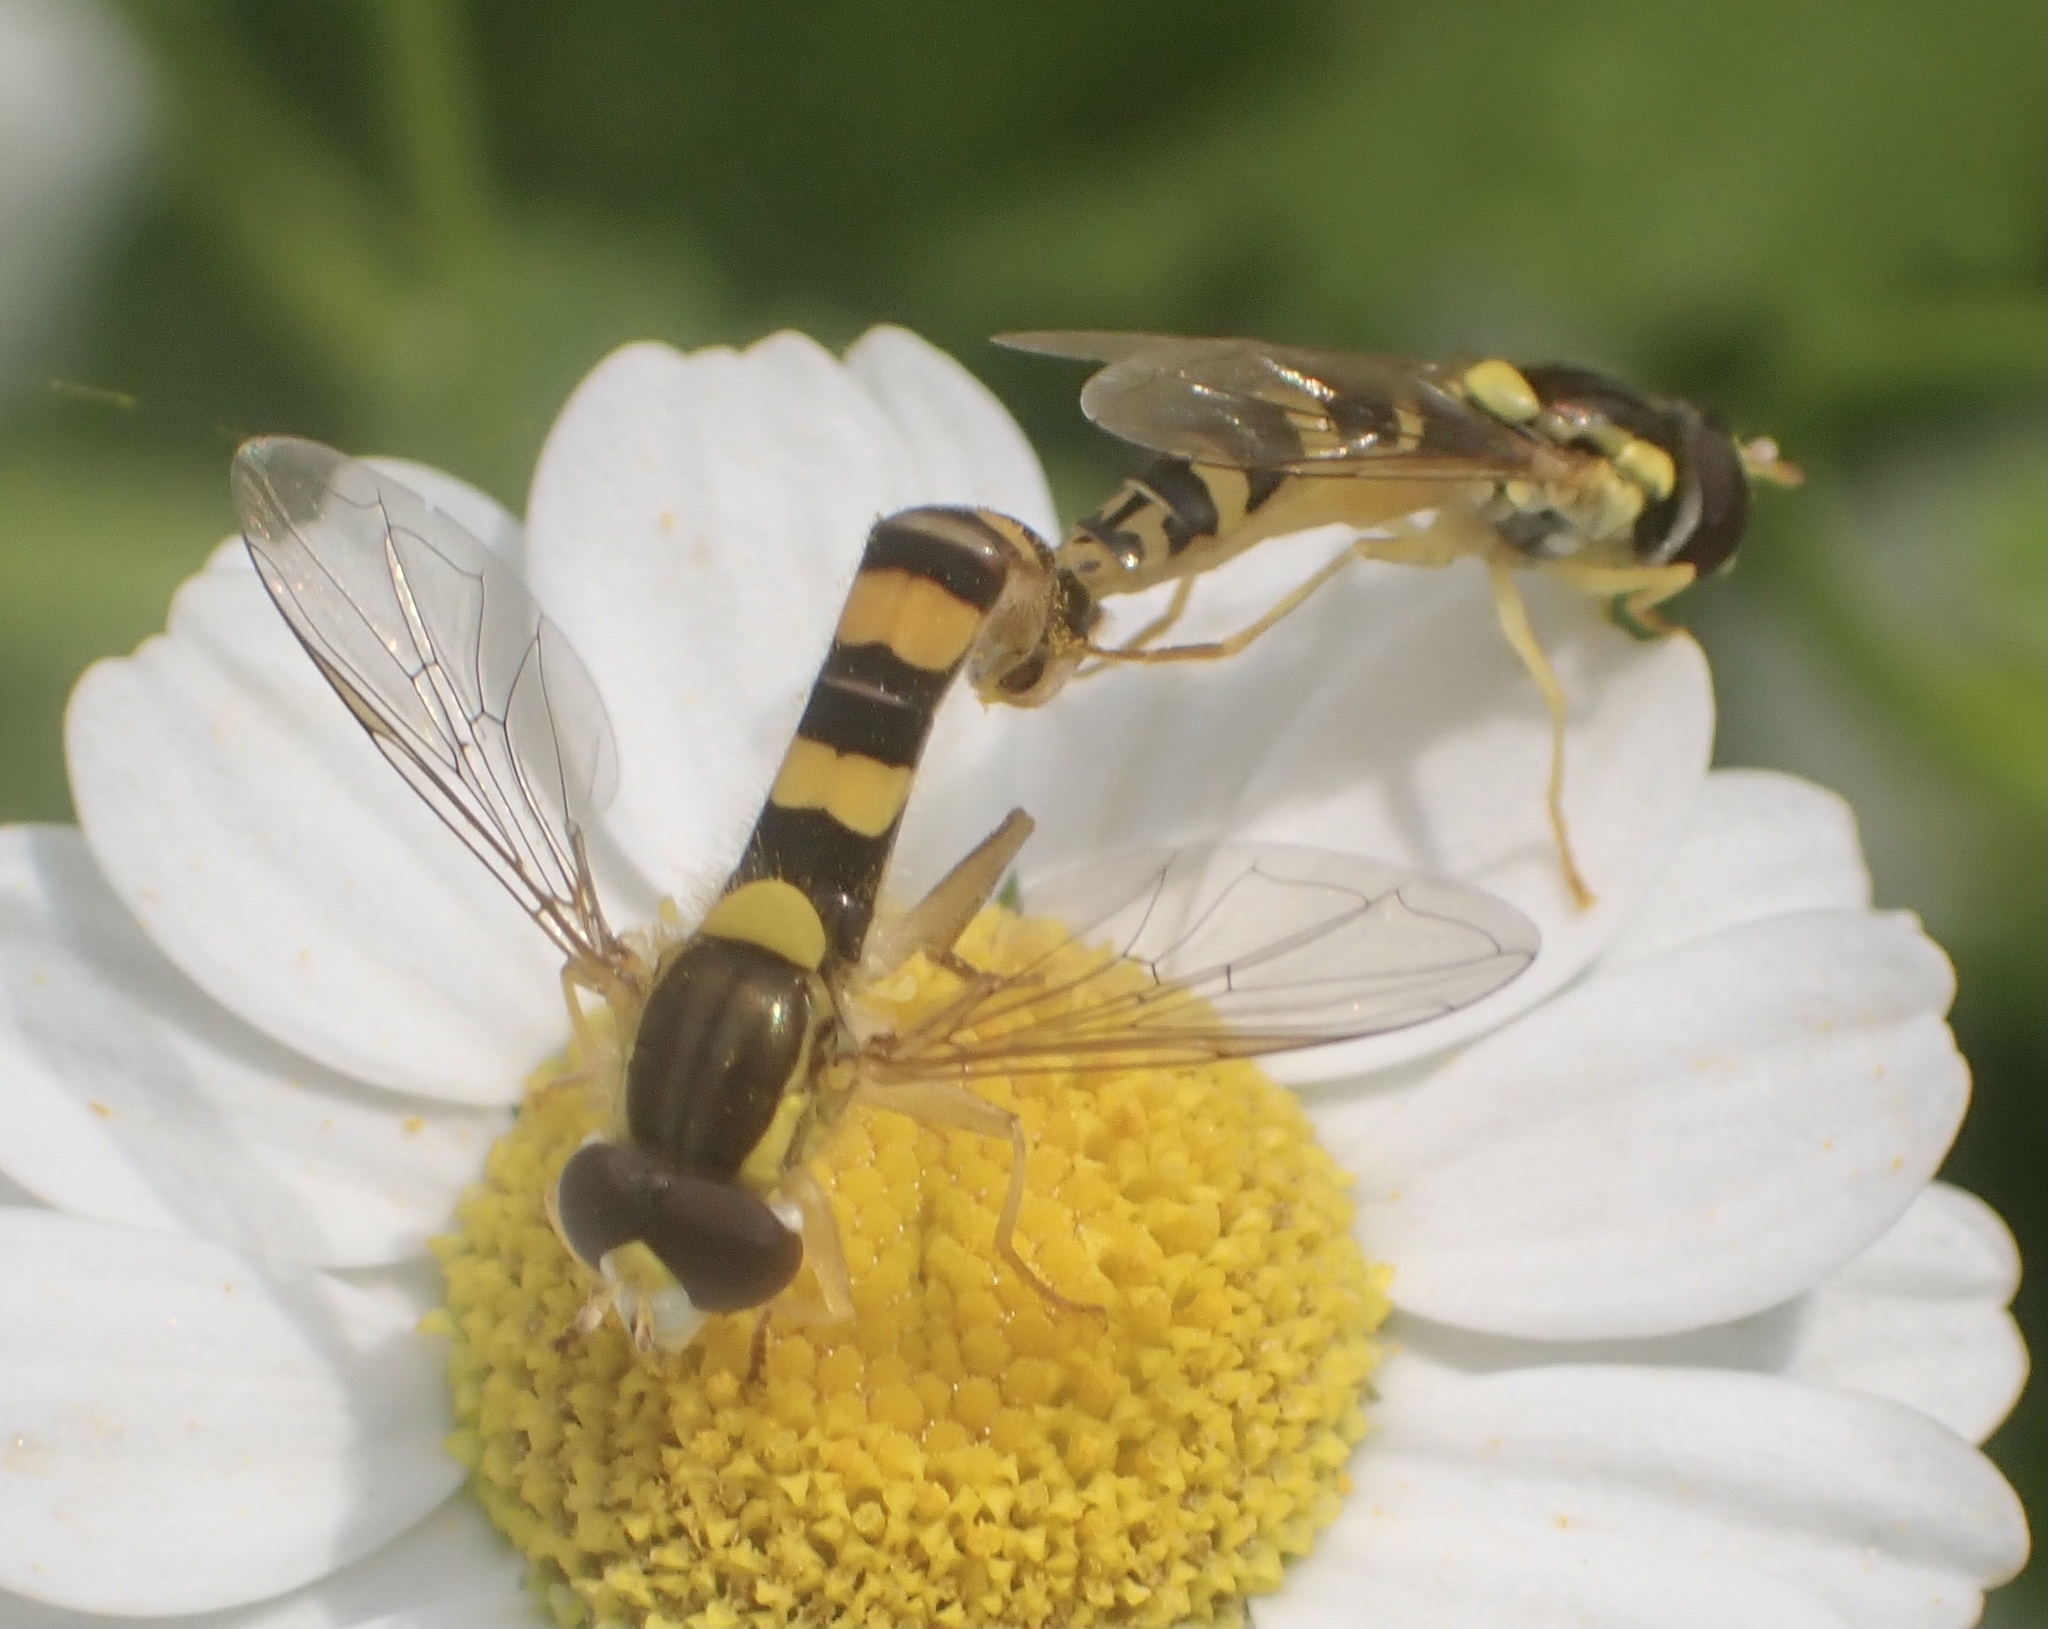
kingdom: Animalia
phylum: Arthropoda
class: Insecta
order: Diptera
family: Syrphidae
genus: Sphaerophoria
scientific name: Sphaerophoria scripta
